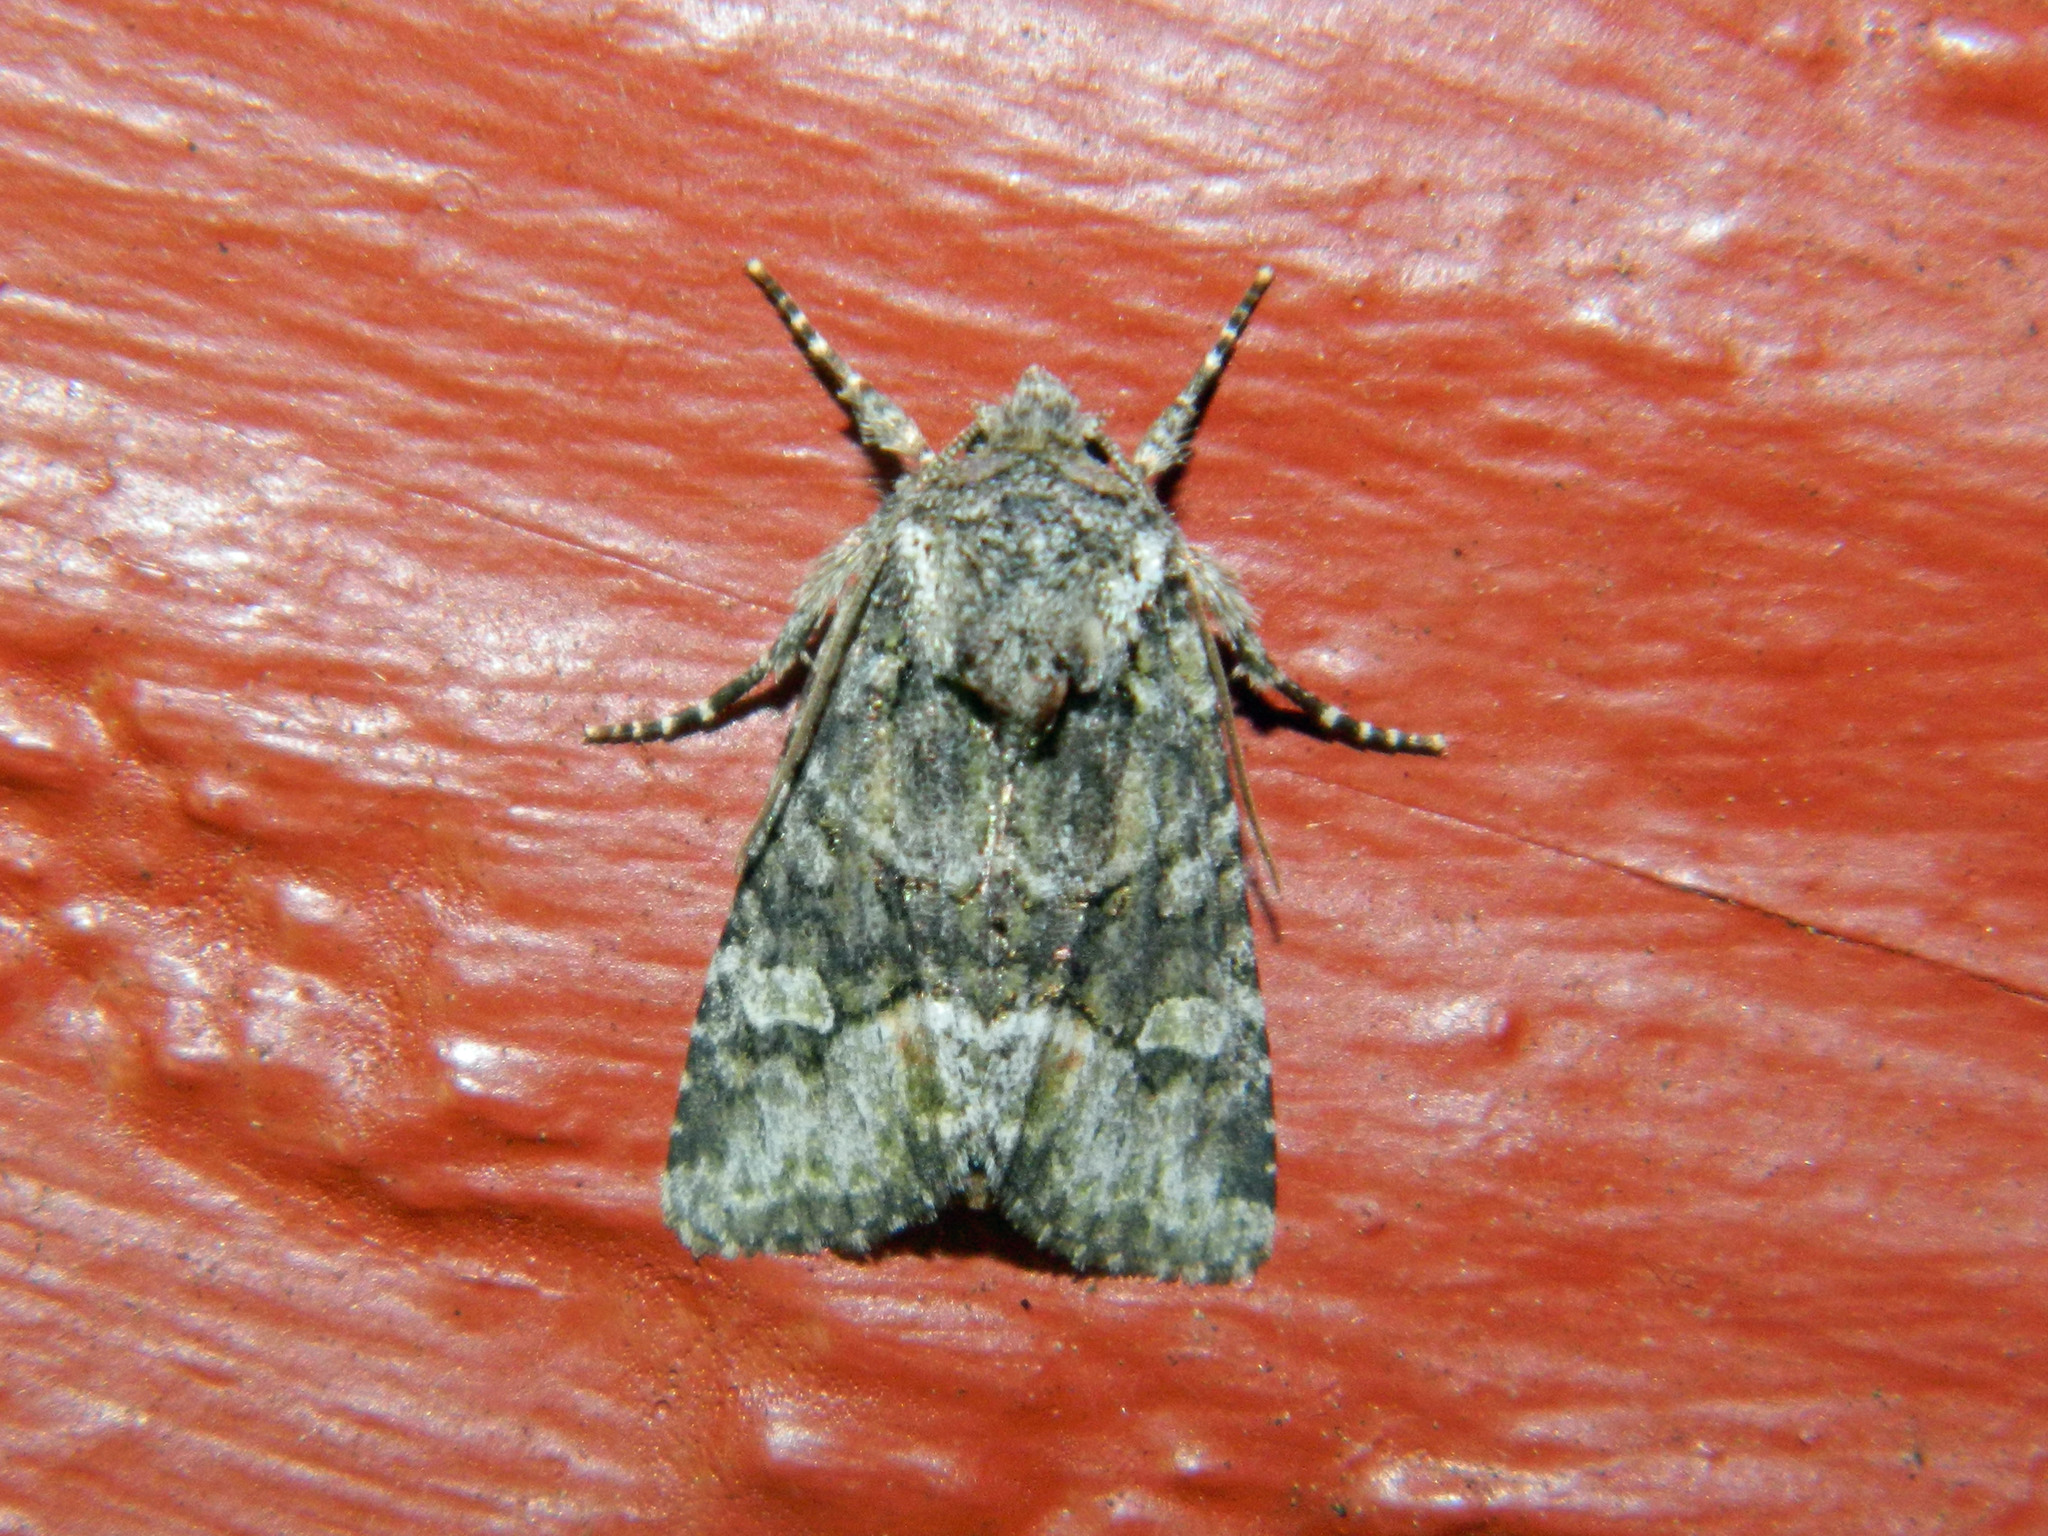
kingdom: Animalia
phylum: Arthropoda
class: Insecta
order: Lepidoptera
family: Noctuidae
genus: Lacinipolia
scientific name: Lacinipolia olivacea
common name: Olive arches moth
